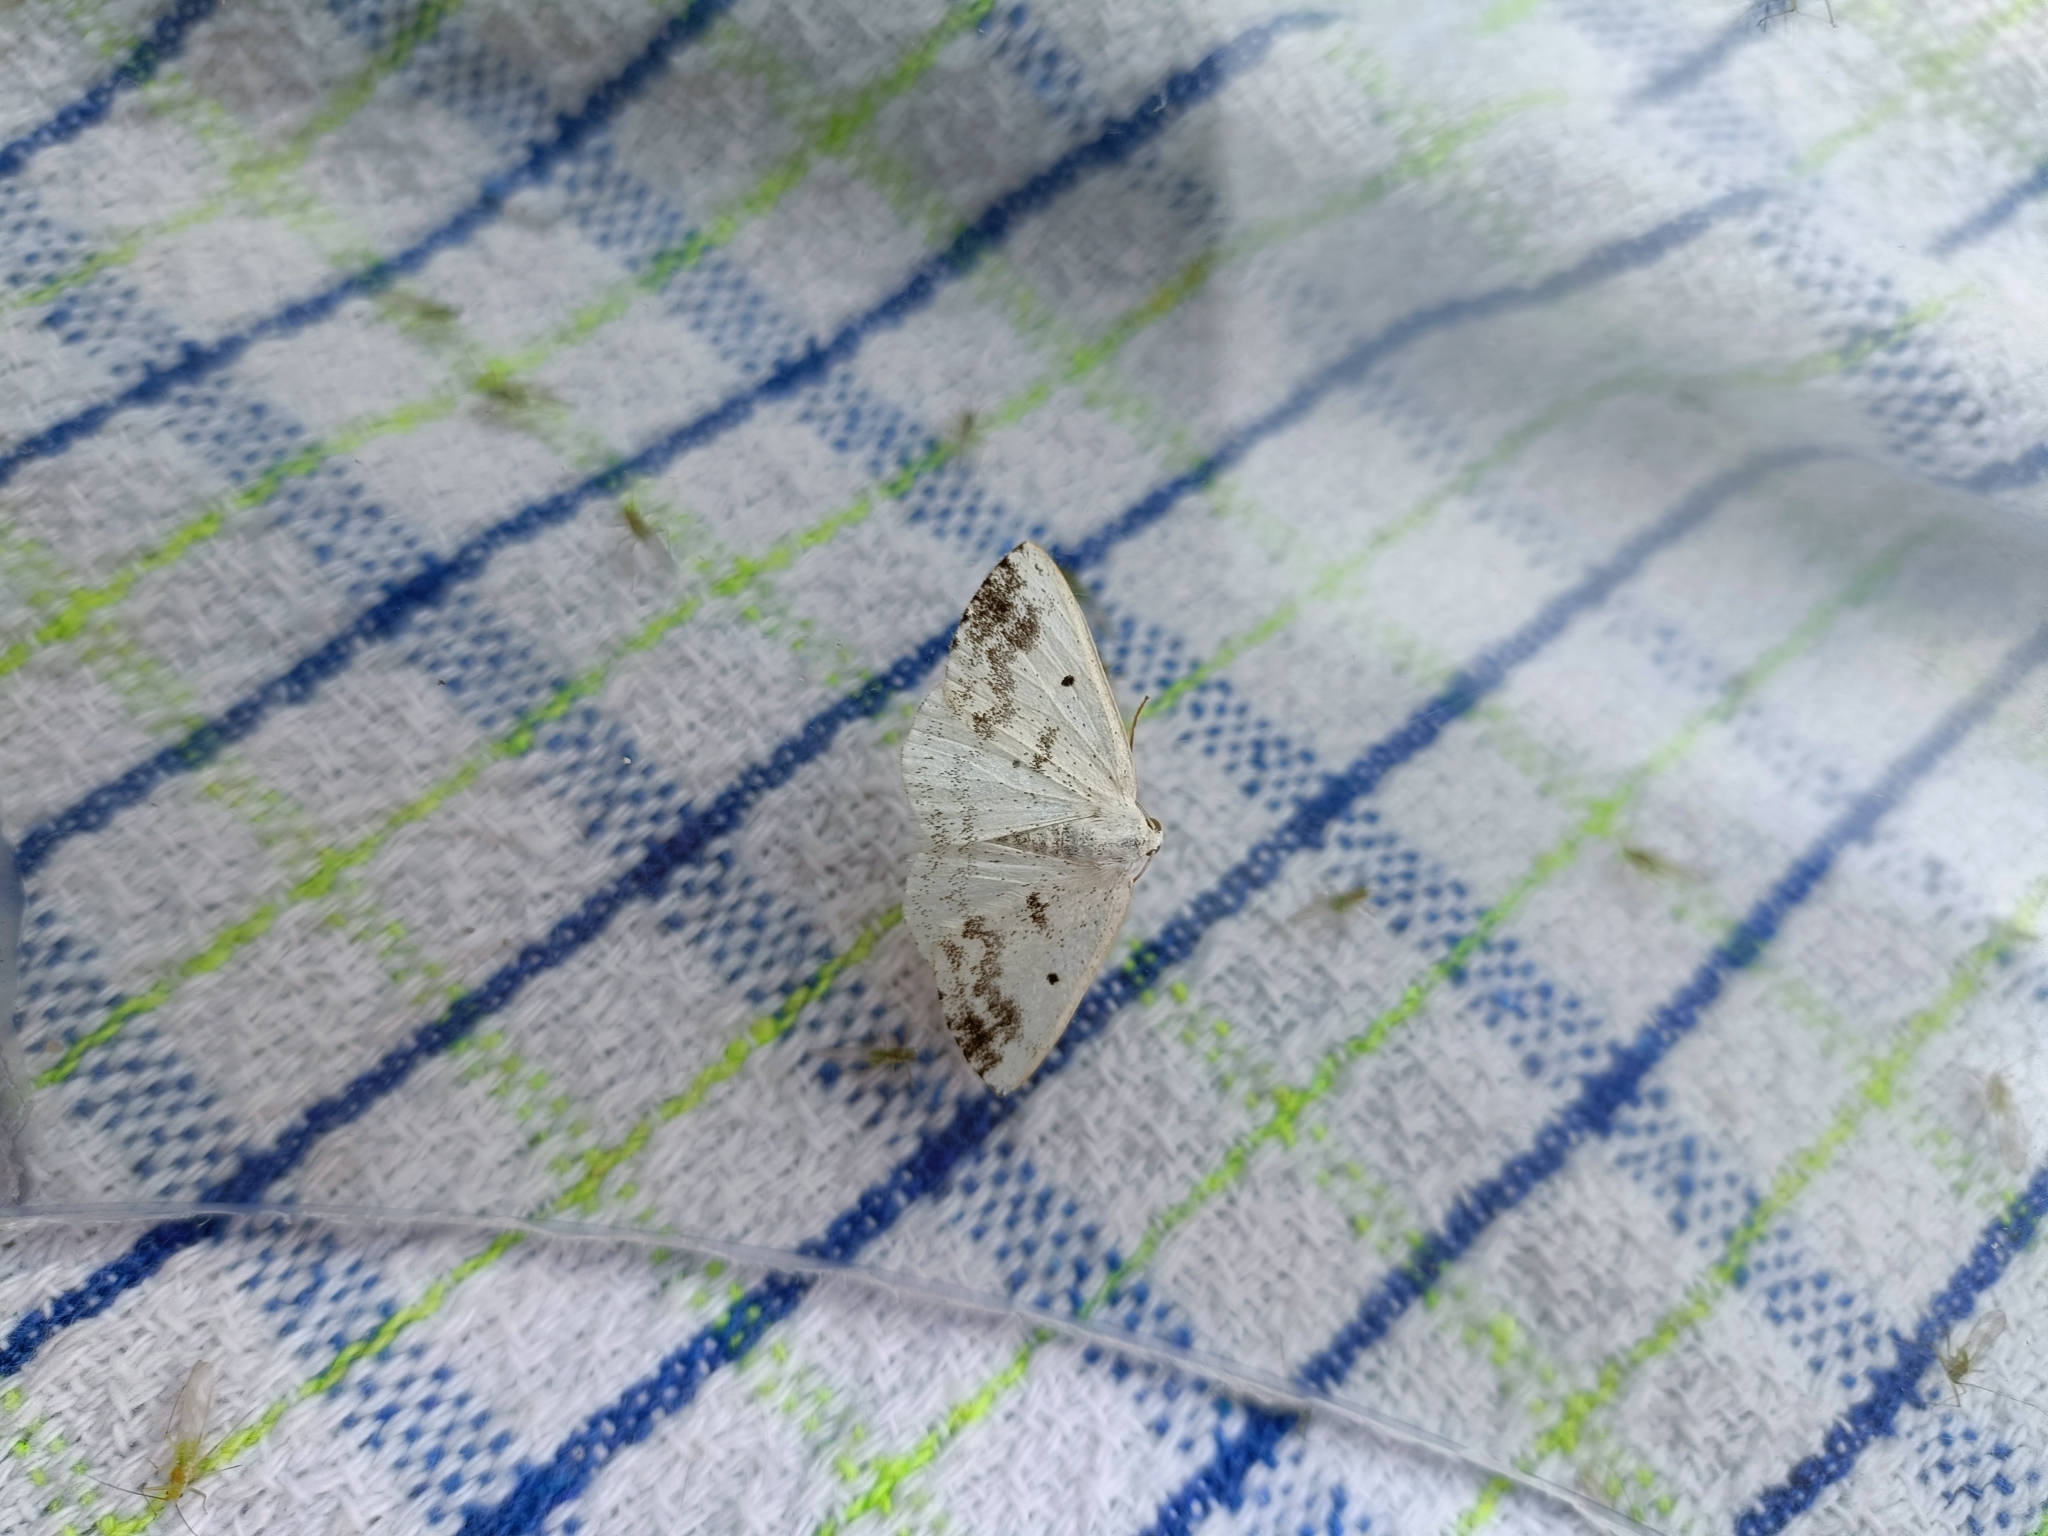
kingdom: Animalia
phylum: Arthropoda
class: Insecta
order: Lepidoptera
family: Geometridae
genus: Lomographa
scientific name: Lomographa temerata
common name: Clouded silver
